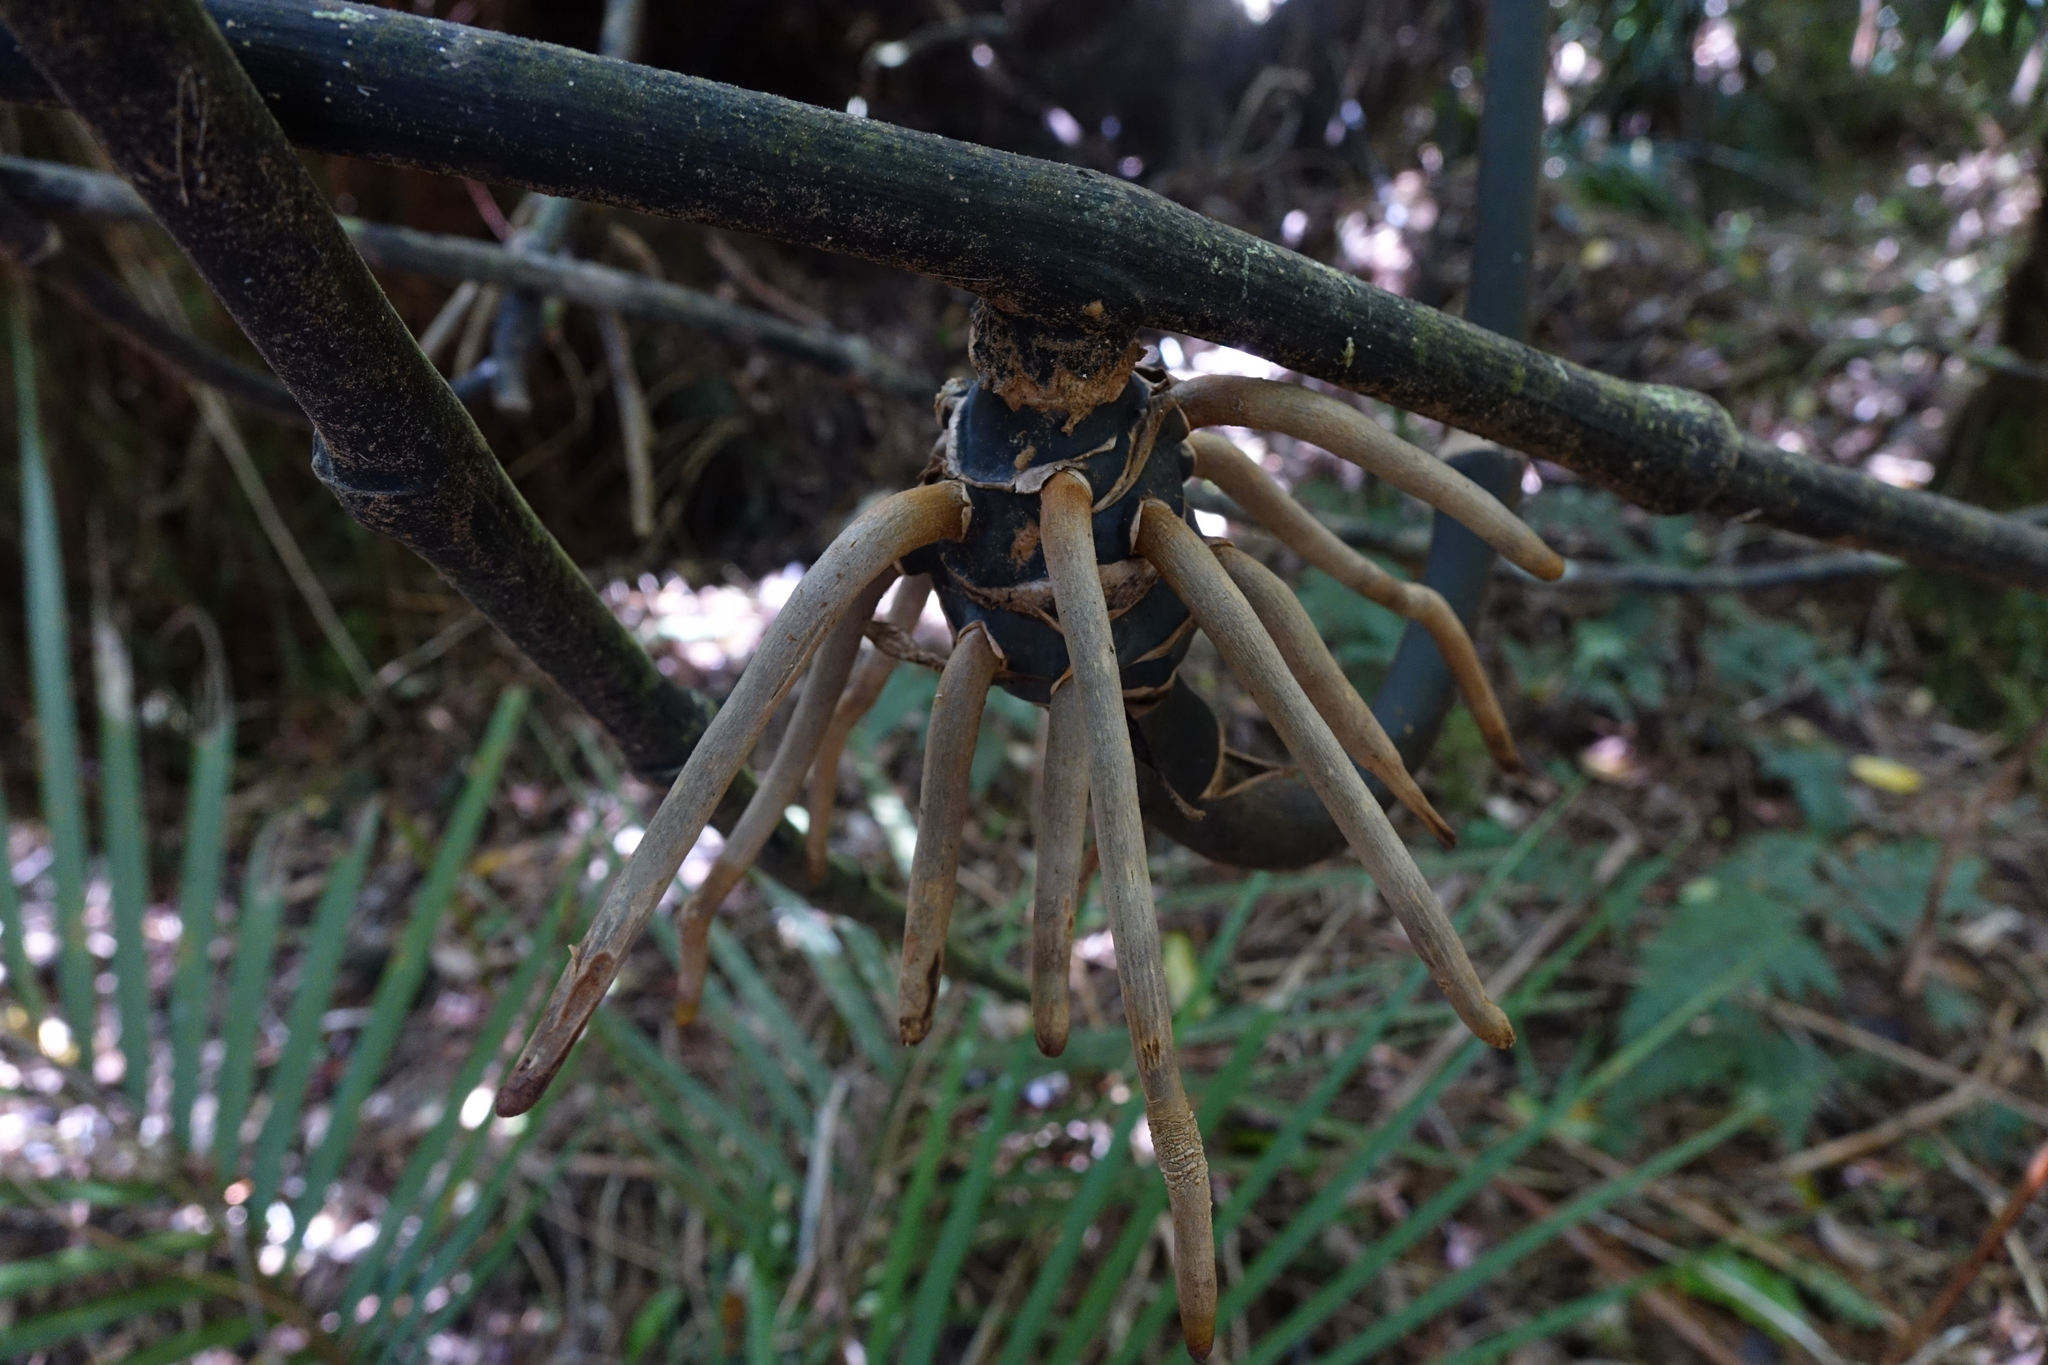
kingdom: Plantae
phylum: Tracheophyta
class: Liliopsida
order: Liliales
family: Ripogonaceae
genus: Ripogonum
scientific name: Ripogonum scandens
